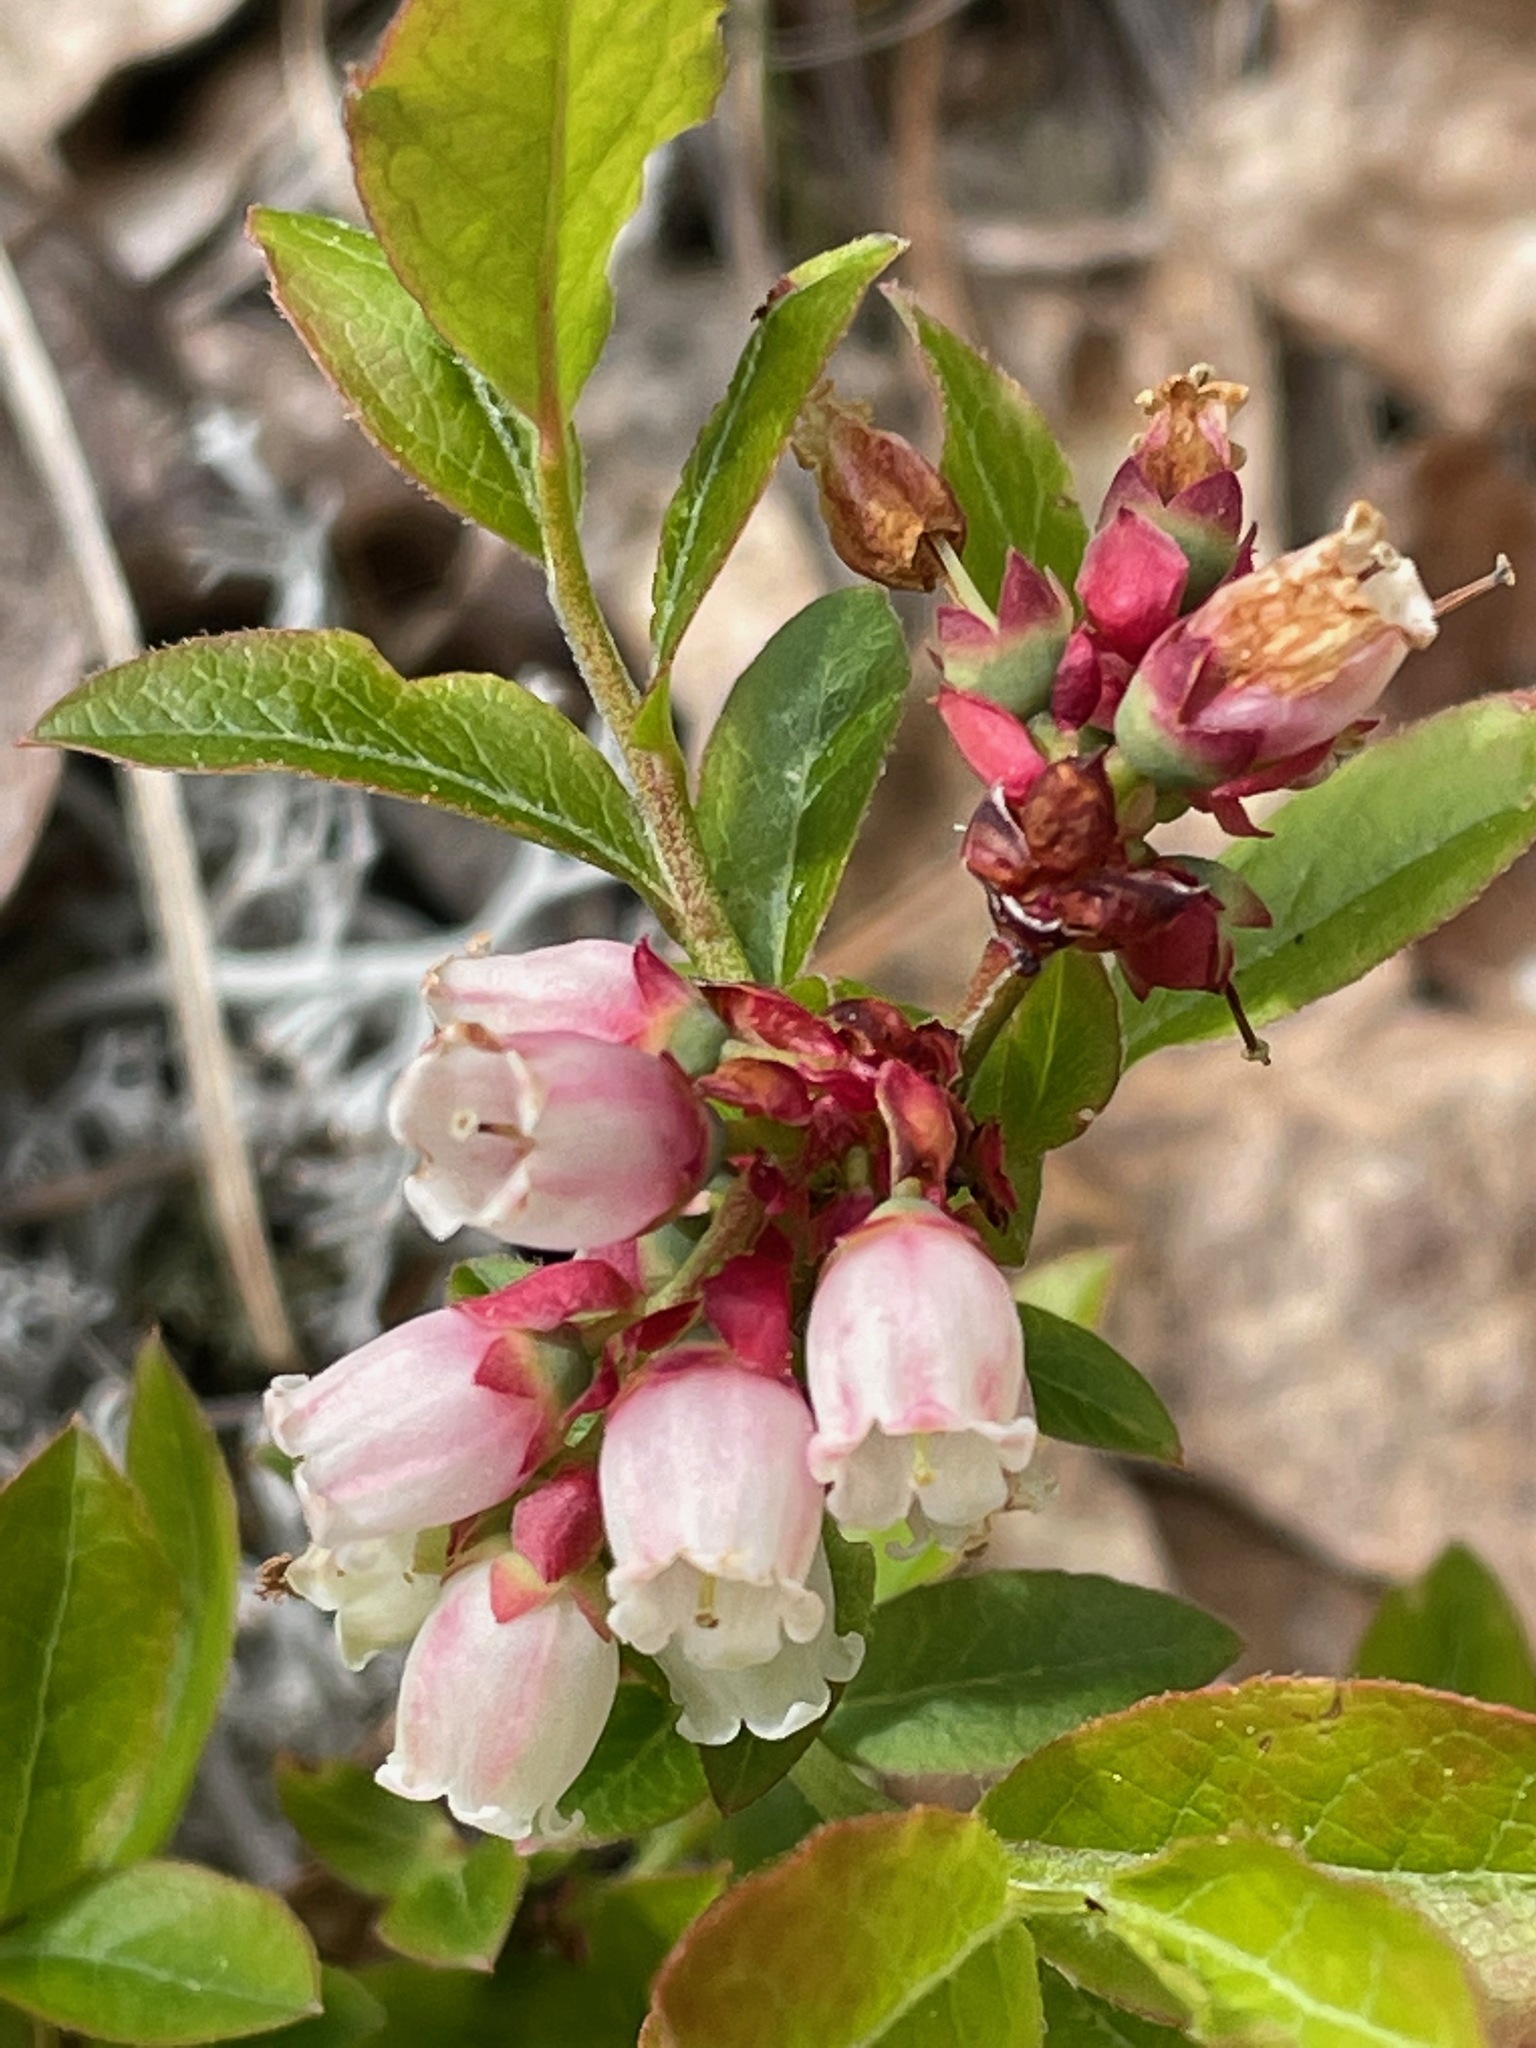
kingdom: Plantae
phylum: Tracheophyta
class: Magnoliopsida
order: Ericales
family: Ericaceae
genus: Vaccinium
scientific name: Vaccinium angustifolium
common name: Early lowbush blueberry
